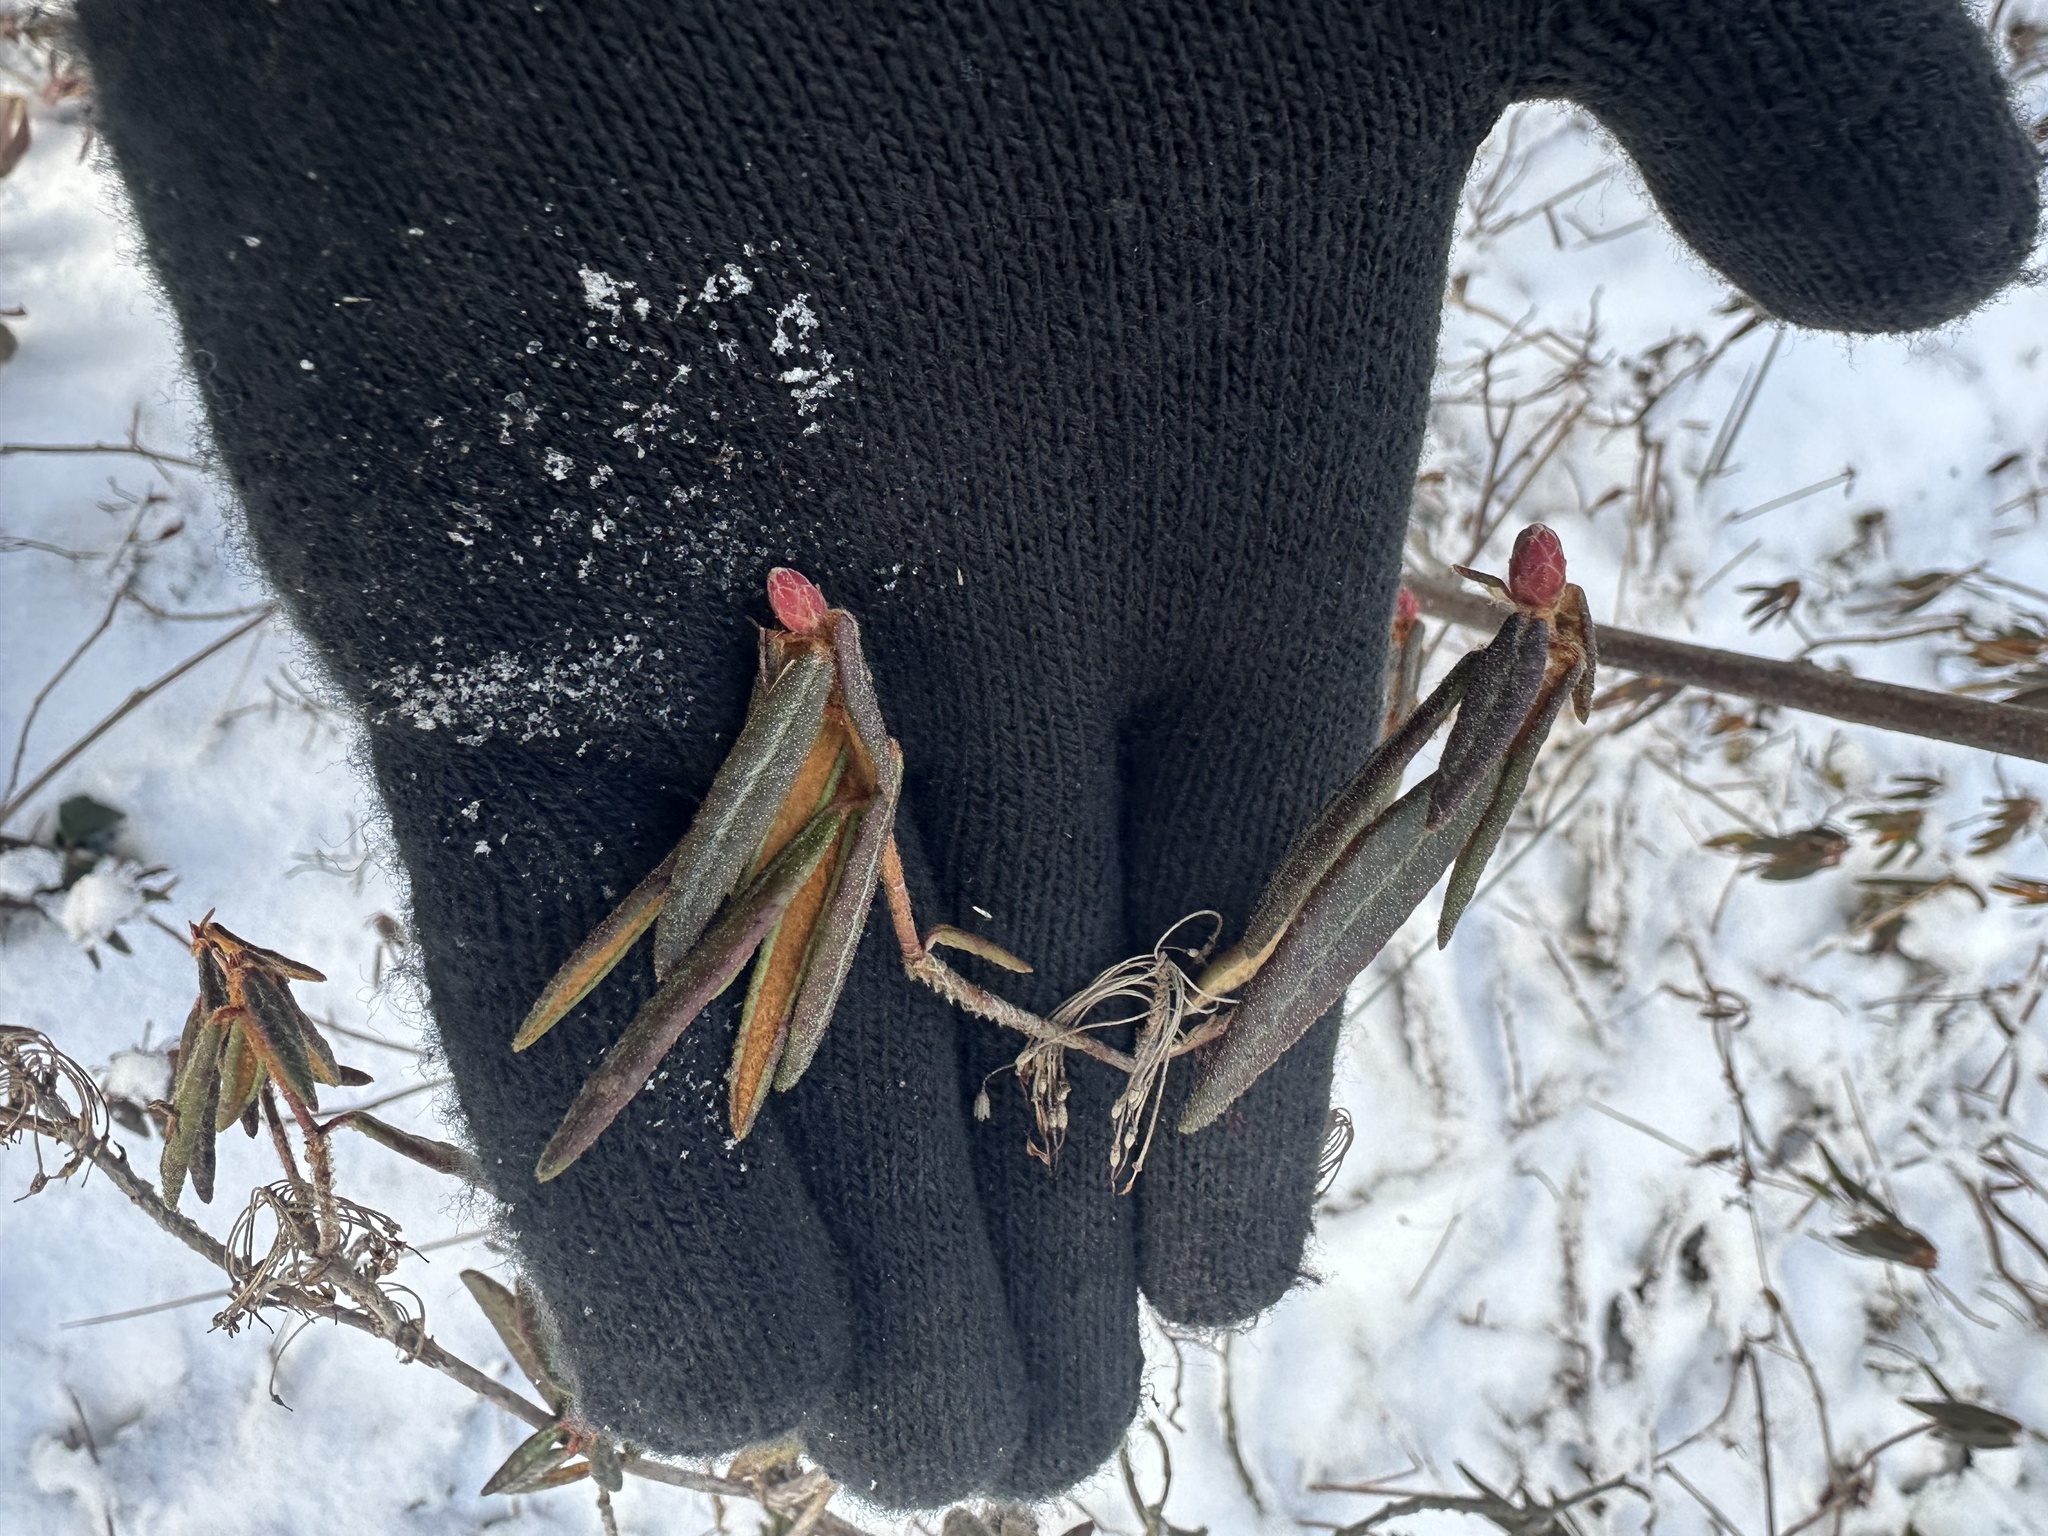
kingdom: Plantae
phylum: Tracheophyta
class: Magnoliopsida
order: Ericales
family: Ericaceae
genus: Rhododendron
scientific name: Rhododendron groenlandicum
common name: Bog labrador tea
